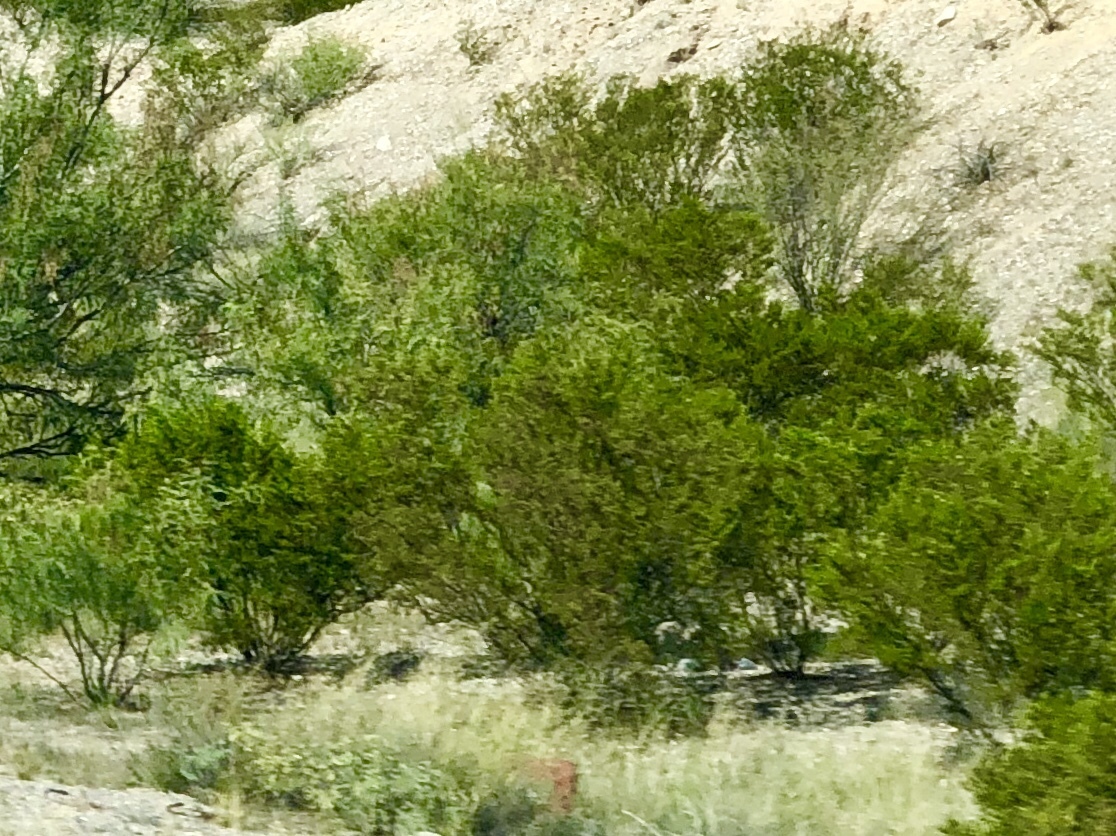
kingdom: Plantae
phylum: Tracheophyta
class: Magnoliopsida
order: Zygophyllales
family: Zygophyllaceae
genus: Larrea
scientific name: Larrea tridentata
